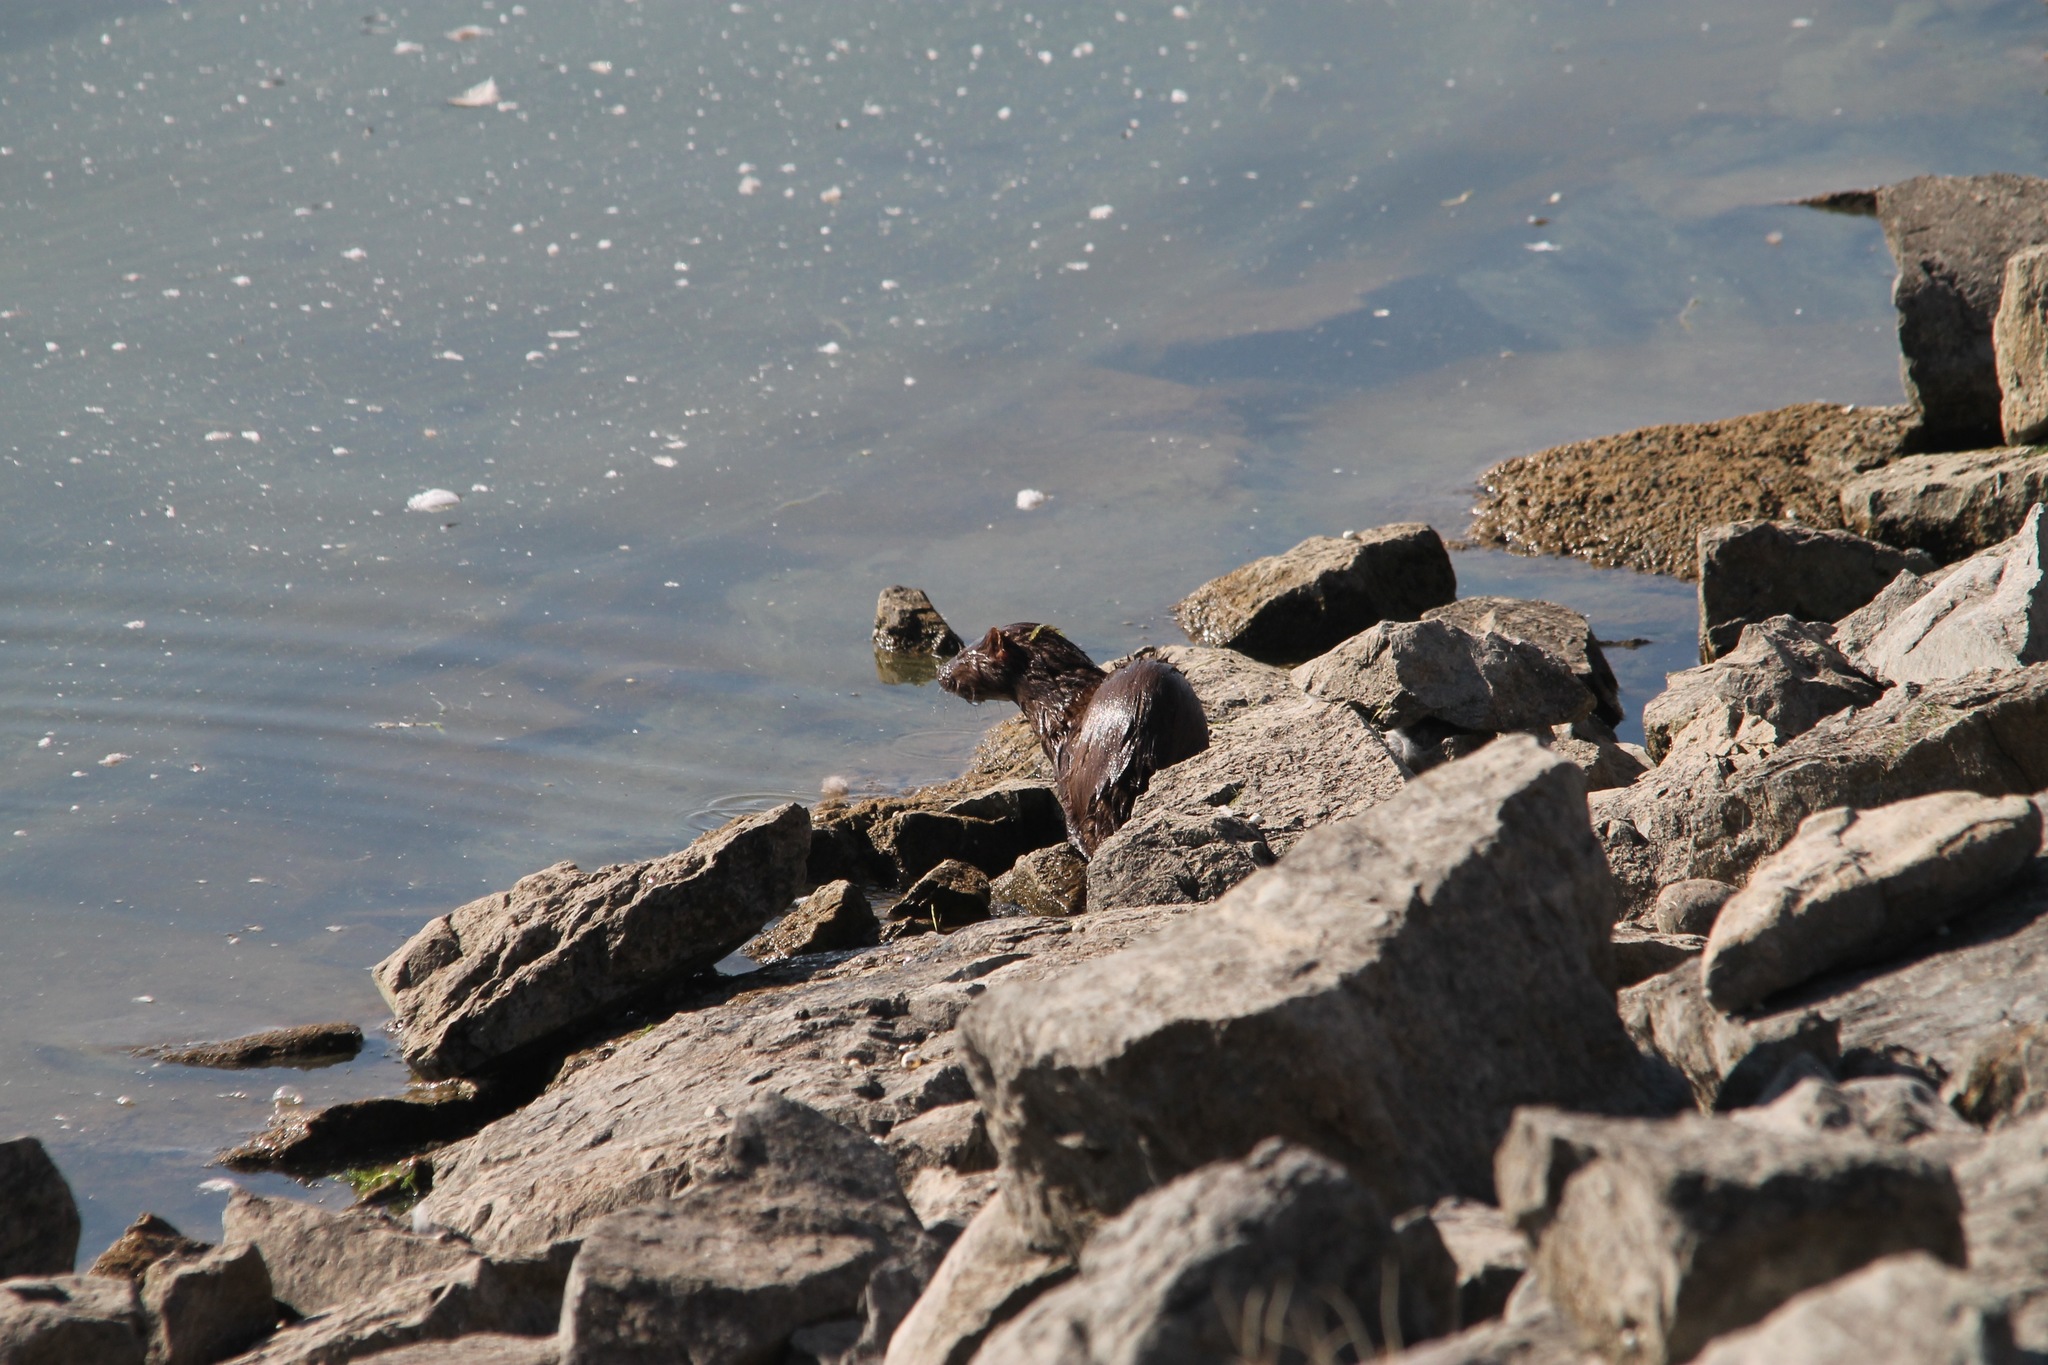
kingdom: Animalia
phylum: Chordata
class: Mammalia
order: Carnivora
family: Mustelidae
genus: Mustela
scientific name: Mustela
